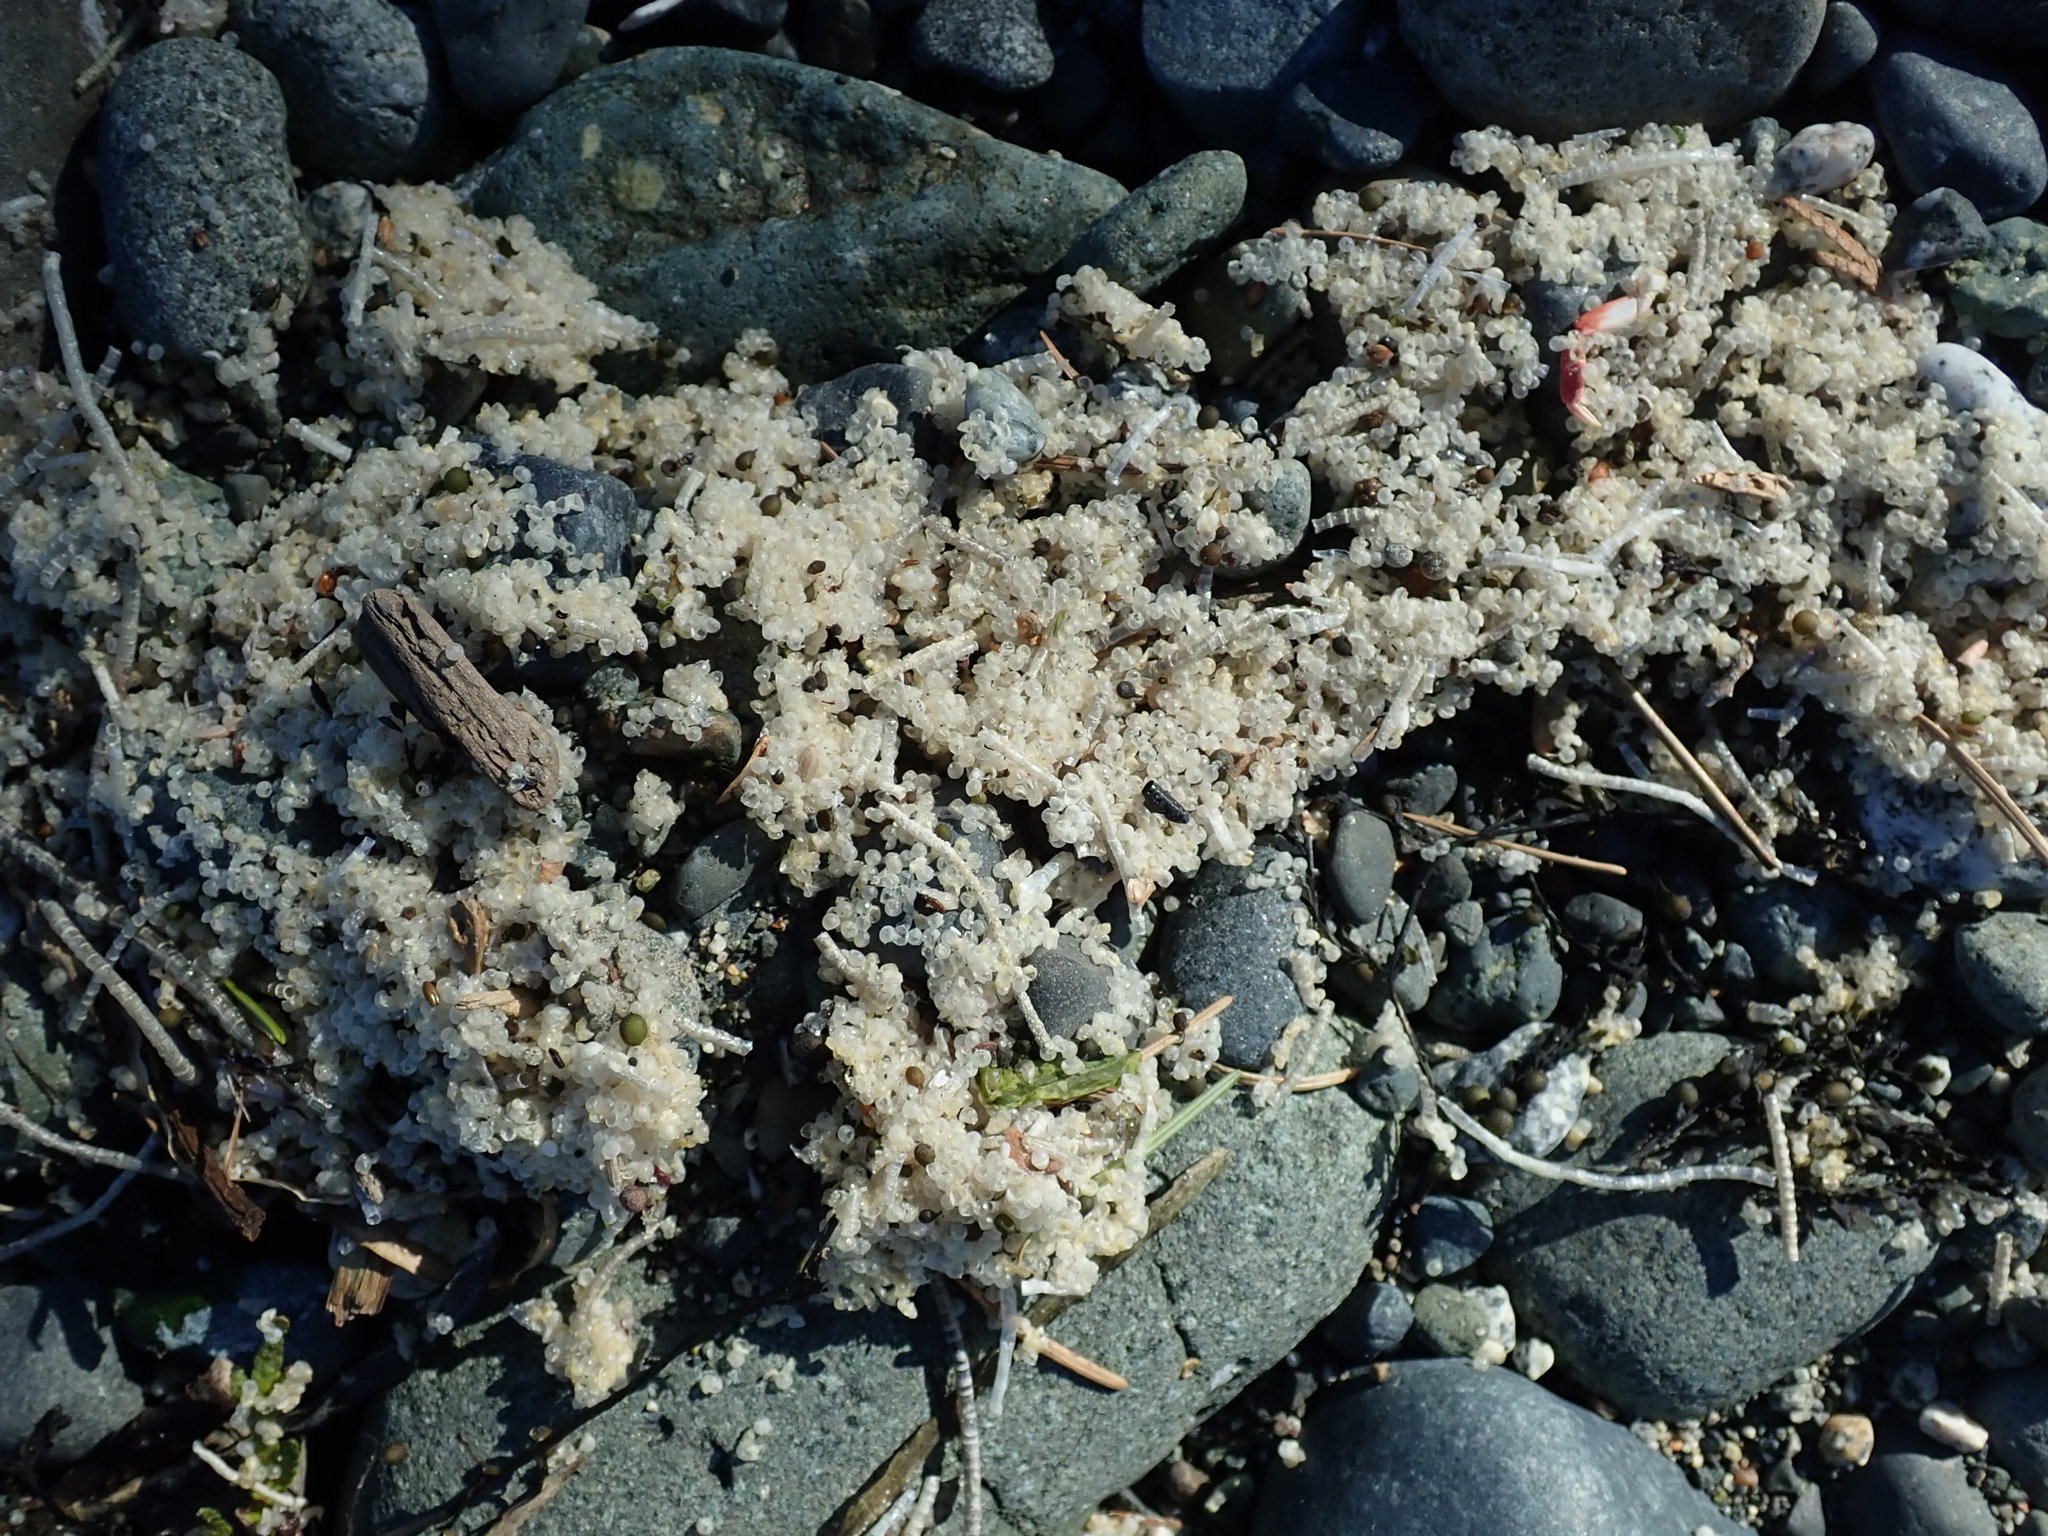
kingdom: Animalia
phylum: Chordata
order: Clupeiformes
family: Clupeidae
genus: Clupea
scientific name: Clupea pallasii
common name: Pacific herring
